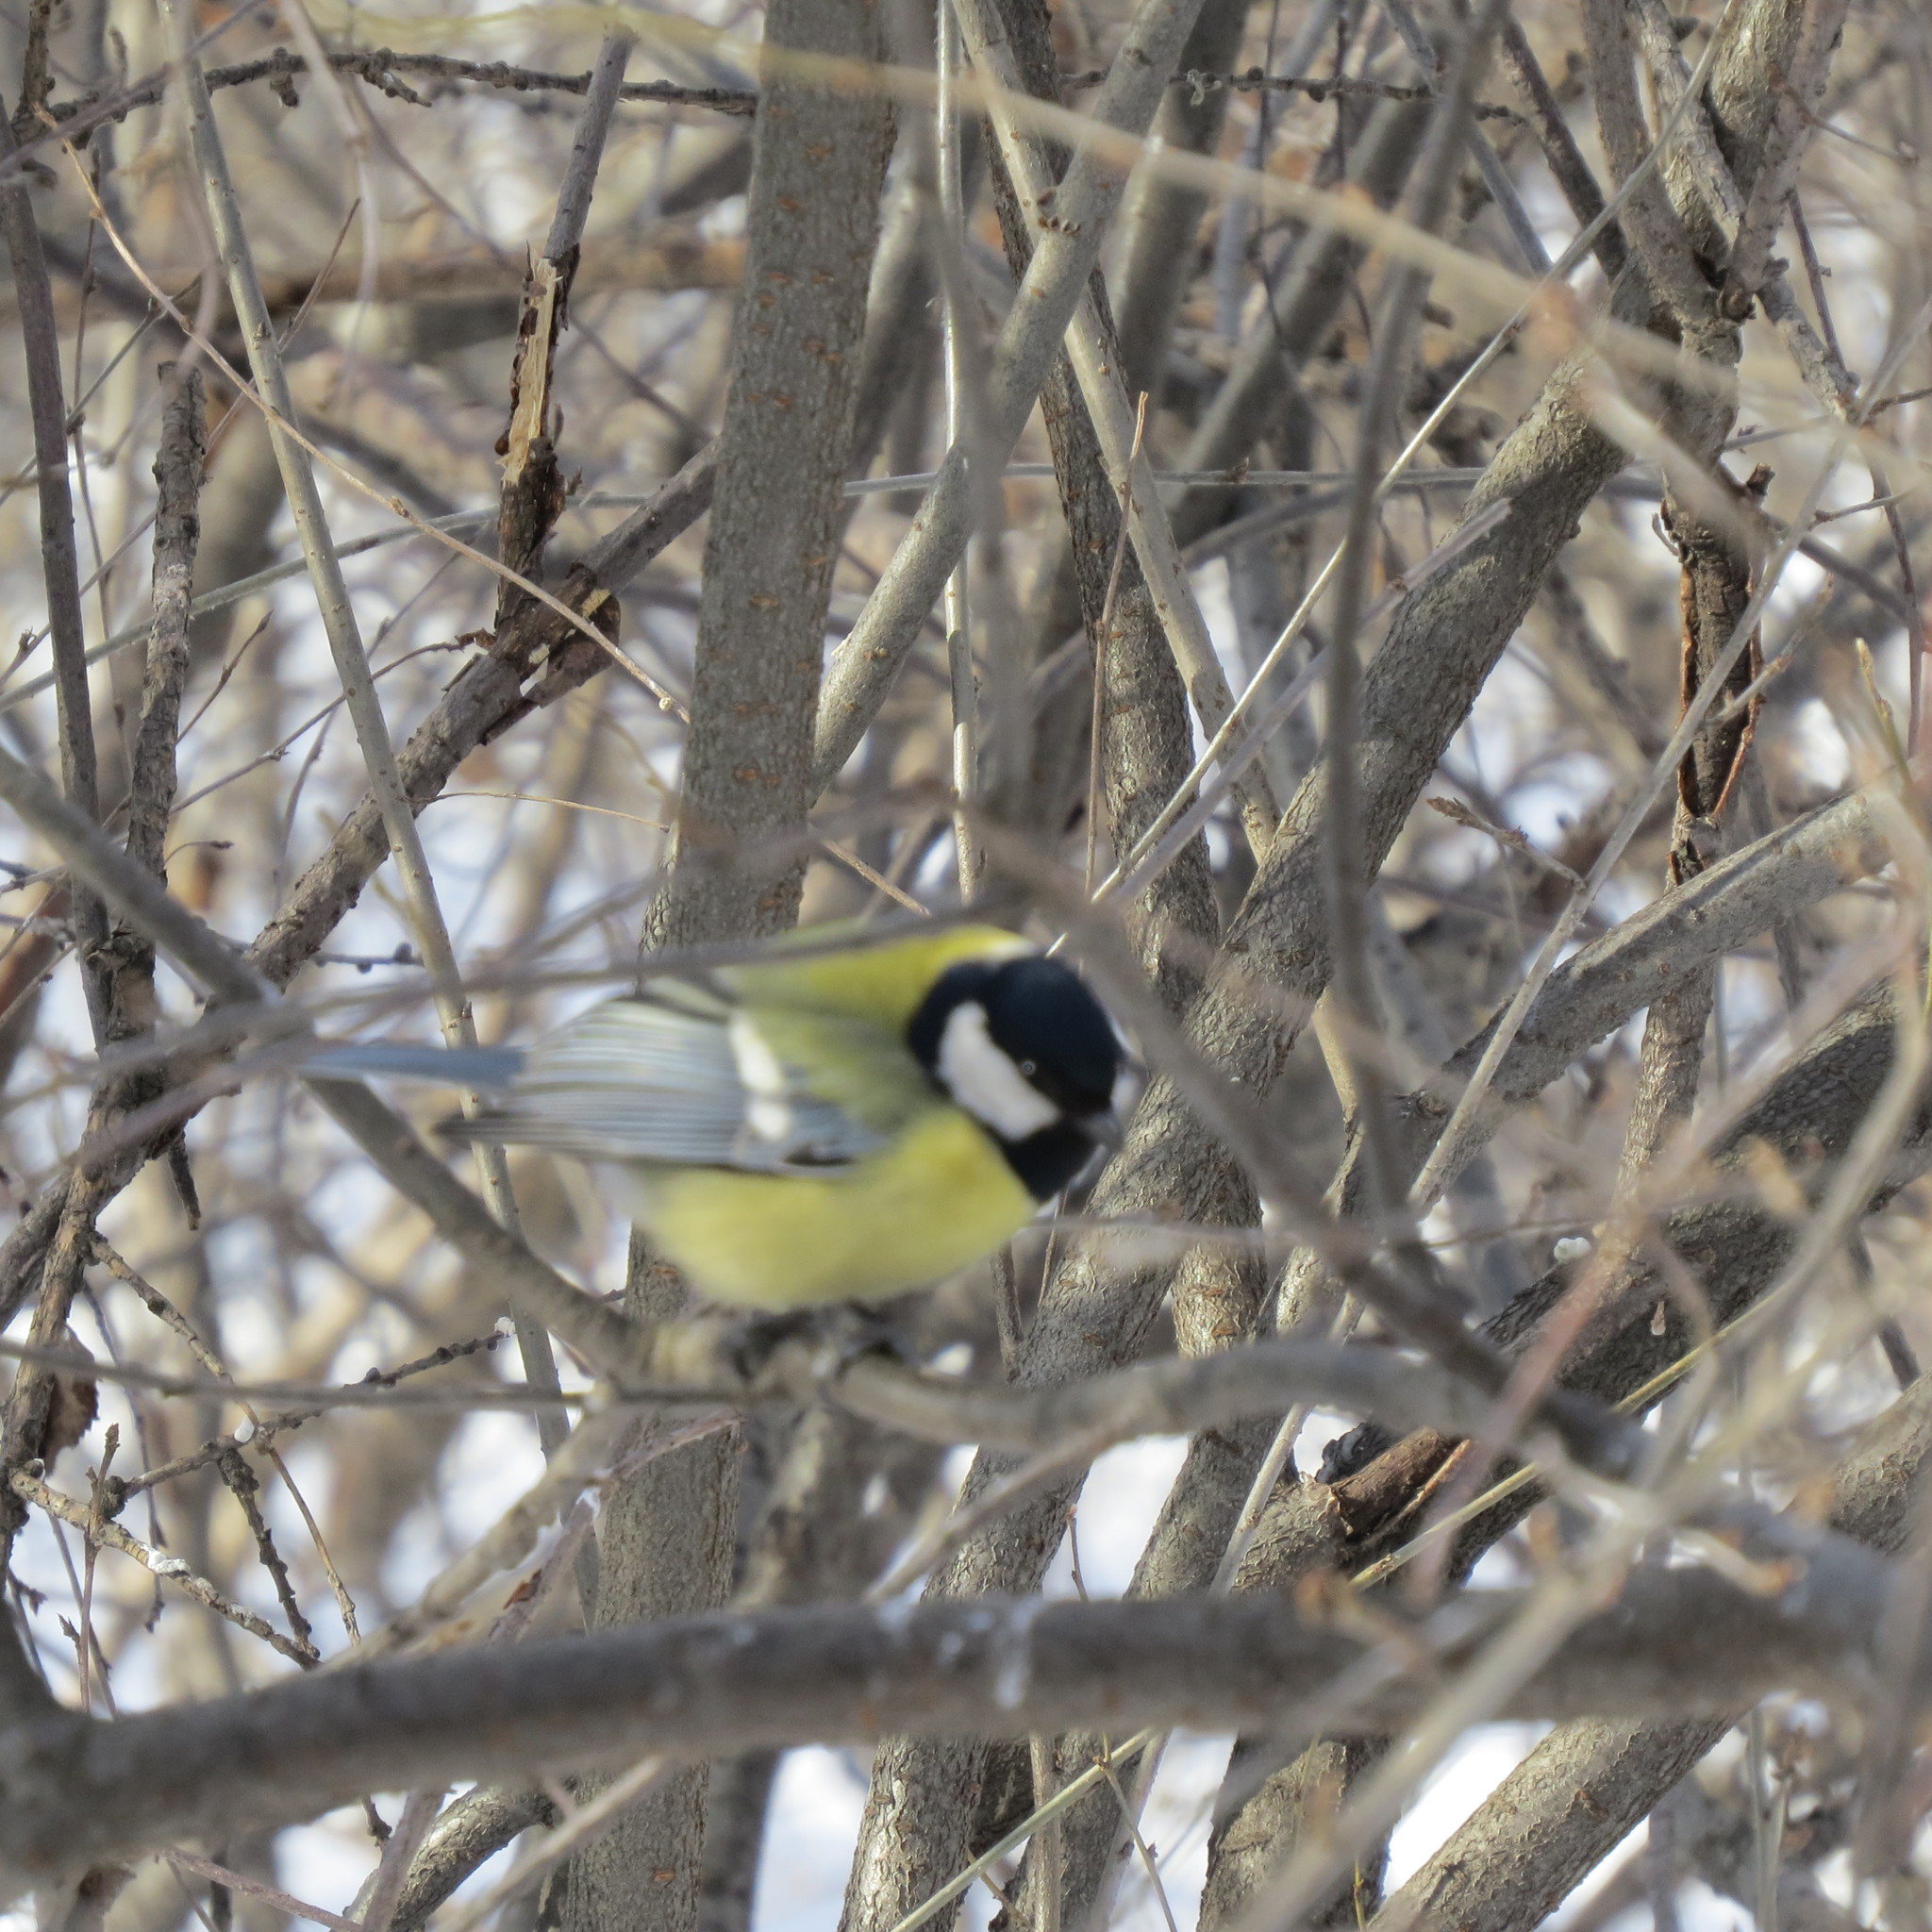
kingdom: Animalia
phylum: Chordata
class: Aves
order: Passeriformes
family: Paridae
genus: Parus
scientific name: Parus major
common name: Great tit
